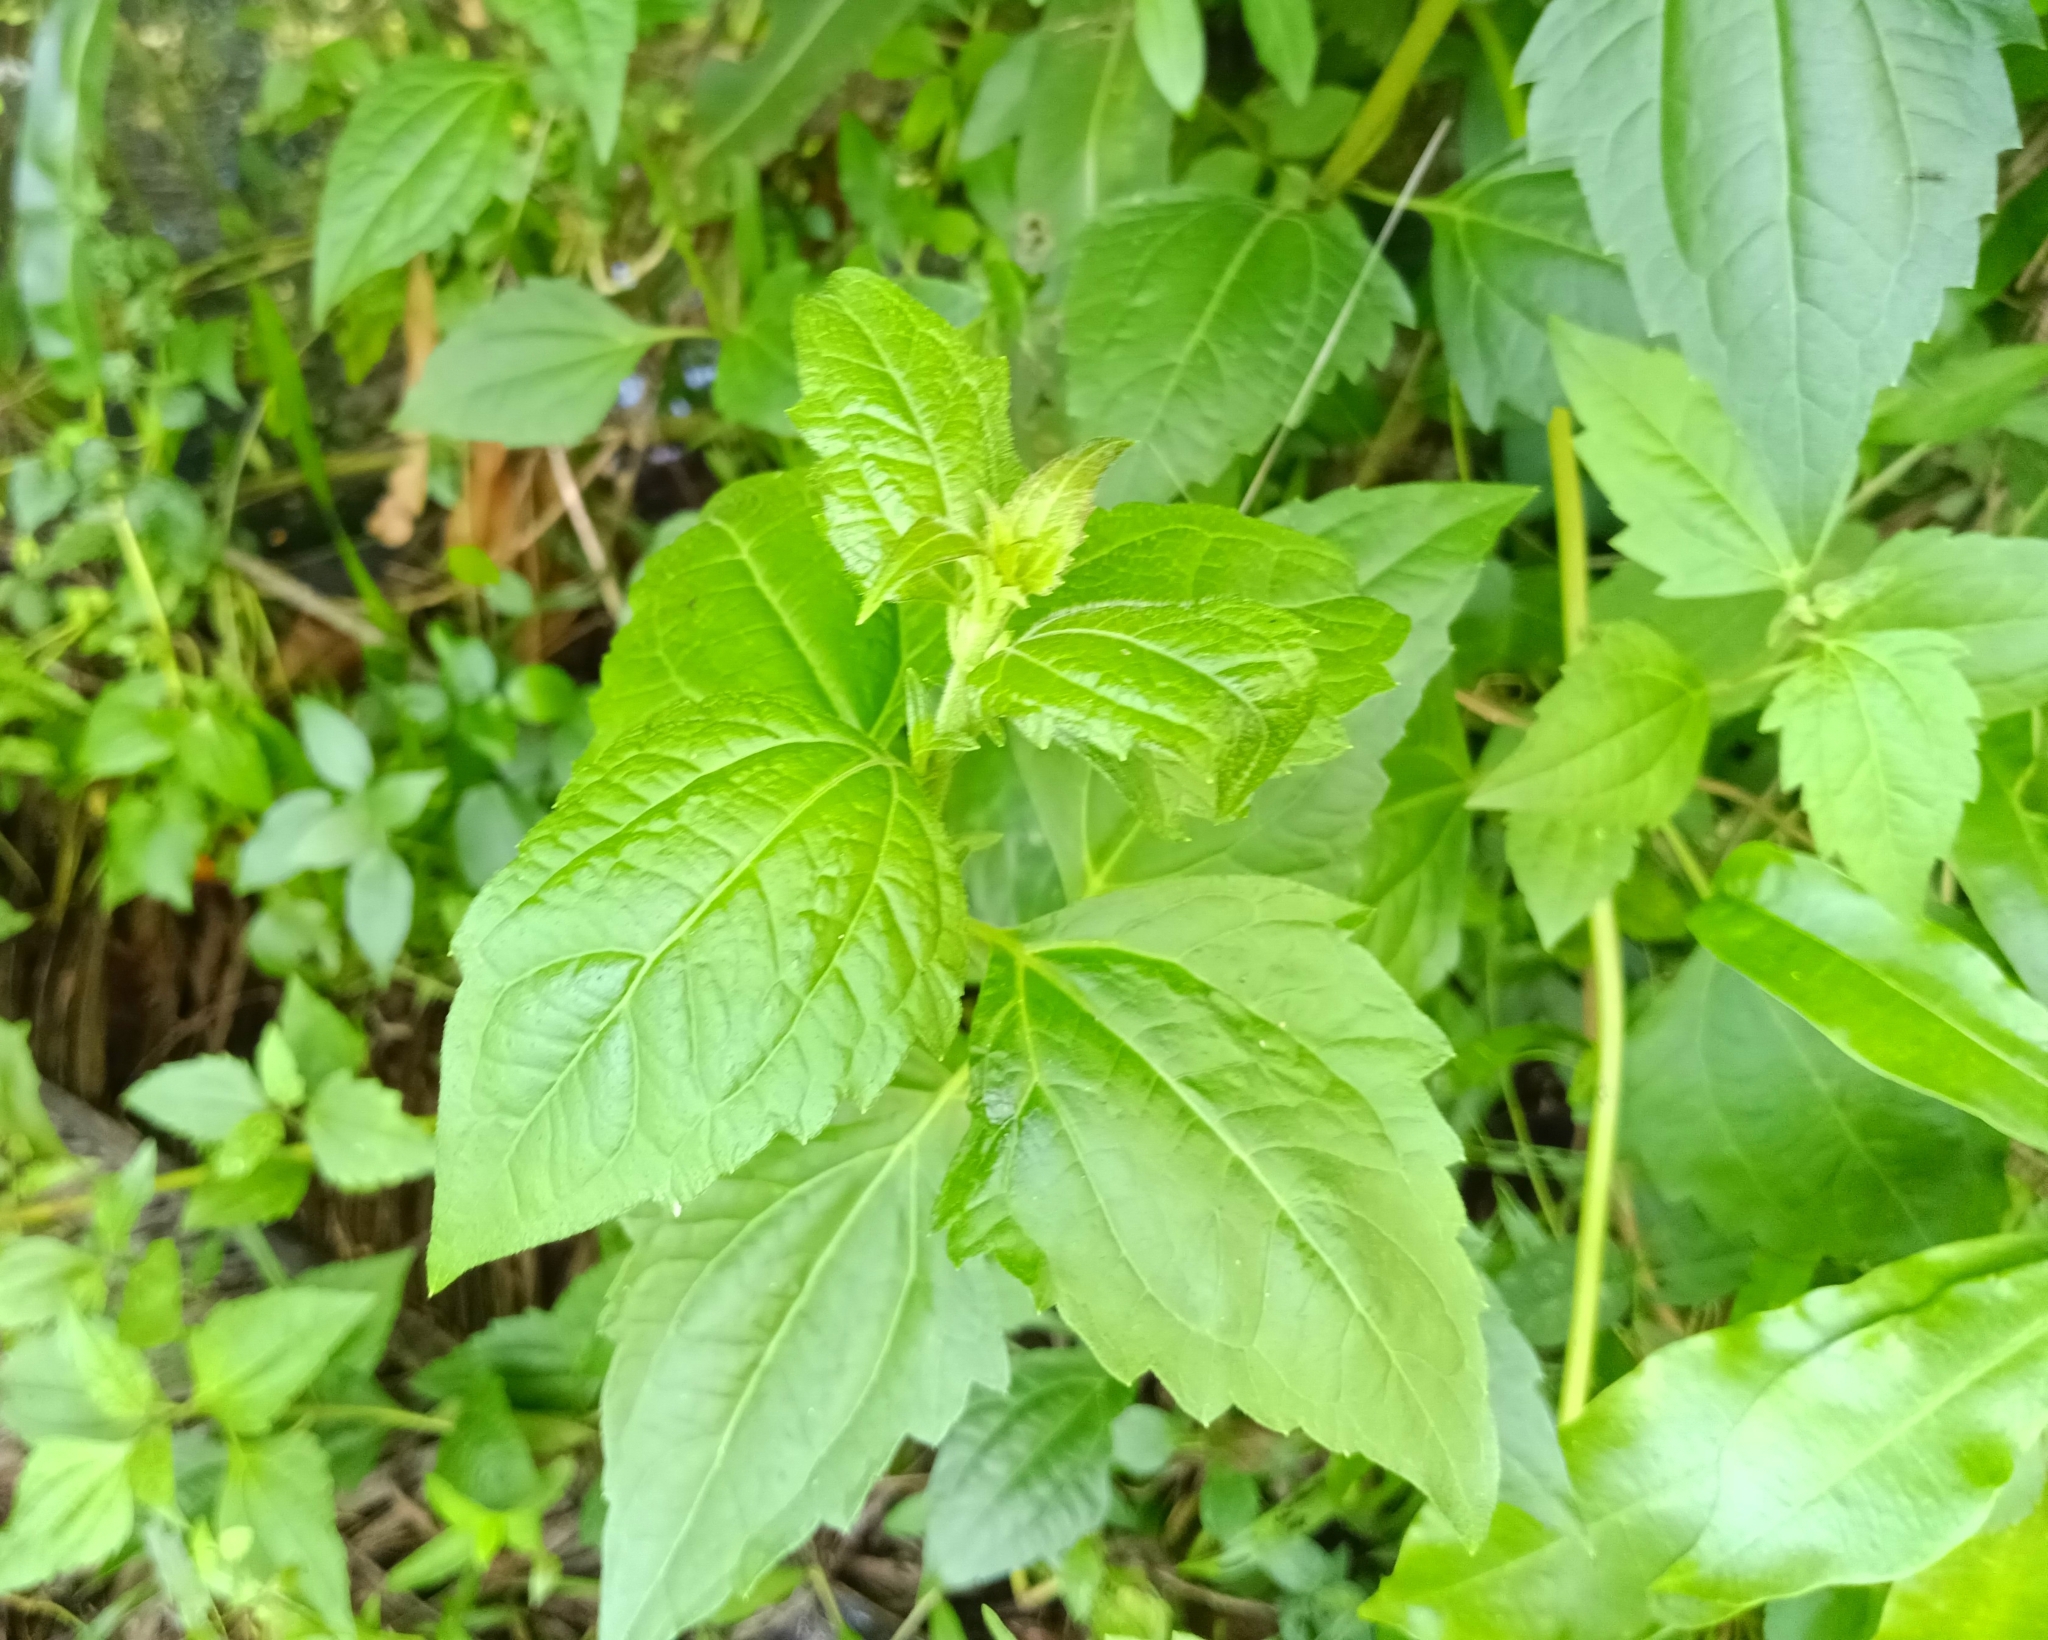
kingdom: Plantae
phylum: Tracheophyta
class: Magnoliopsida
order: Asterales
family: Asteraceae
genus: Chromolaena
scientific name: Chromolaena odorata
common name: Siamweed
